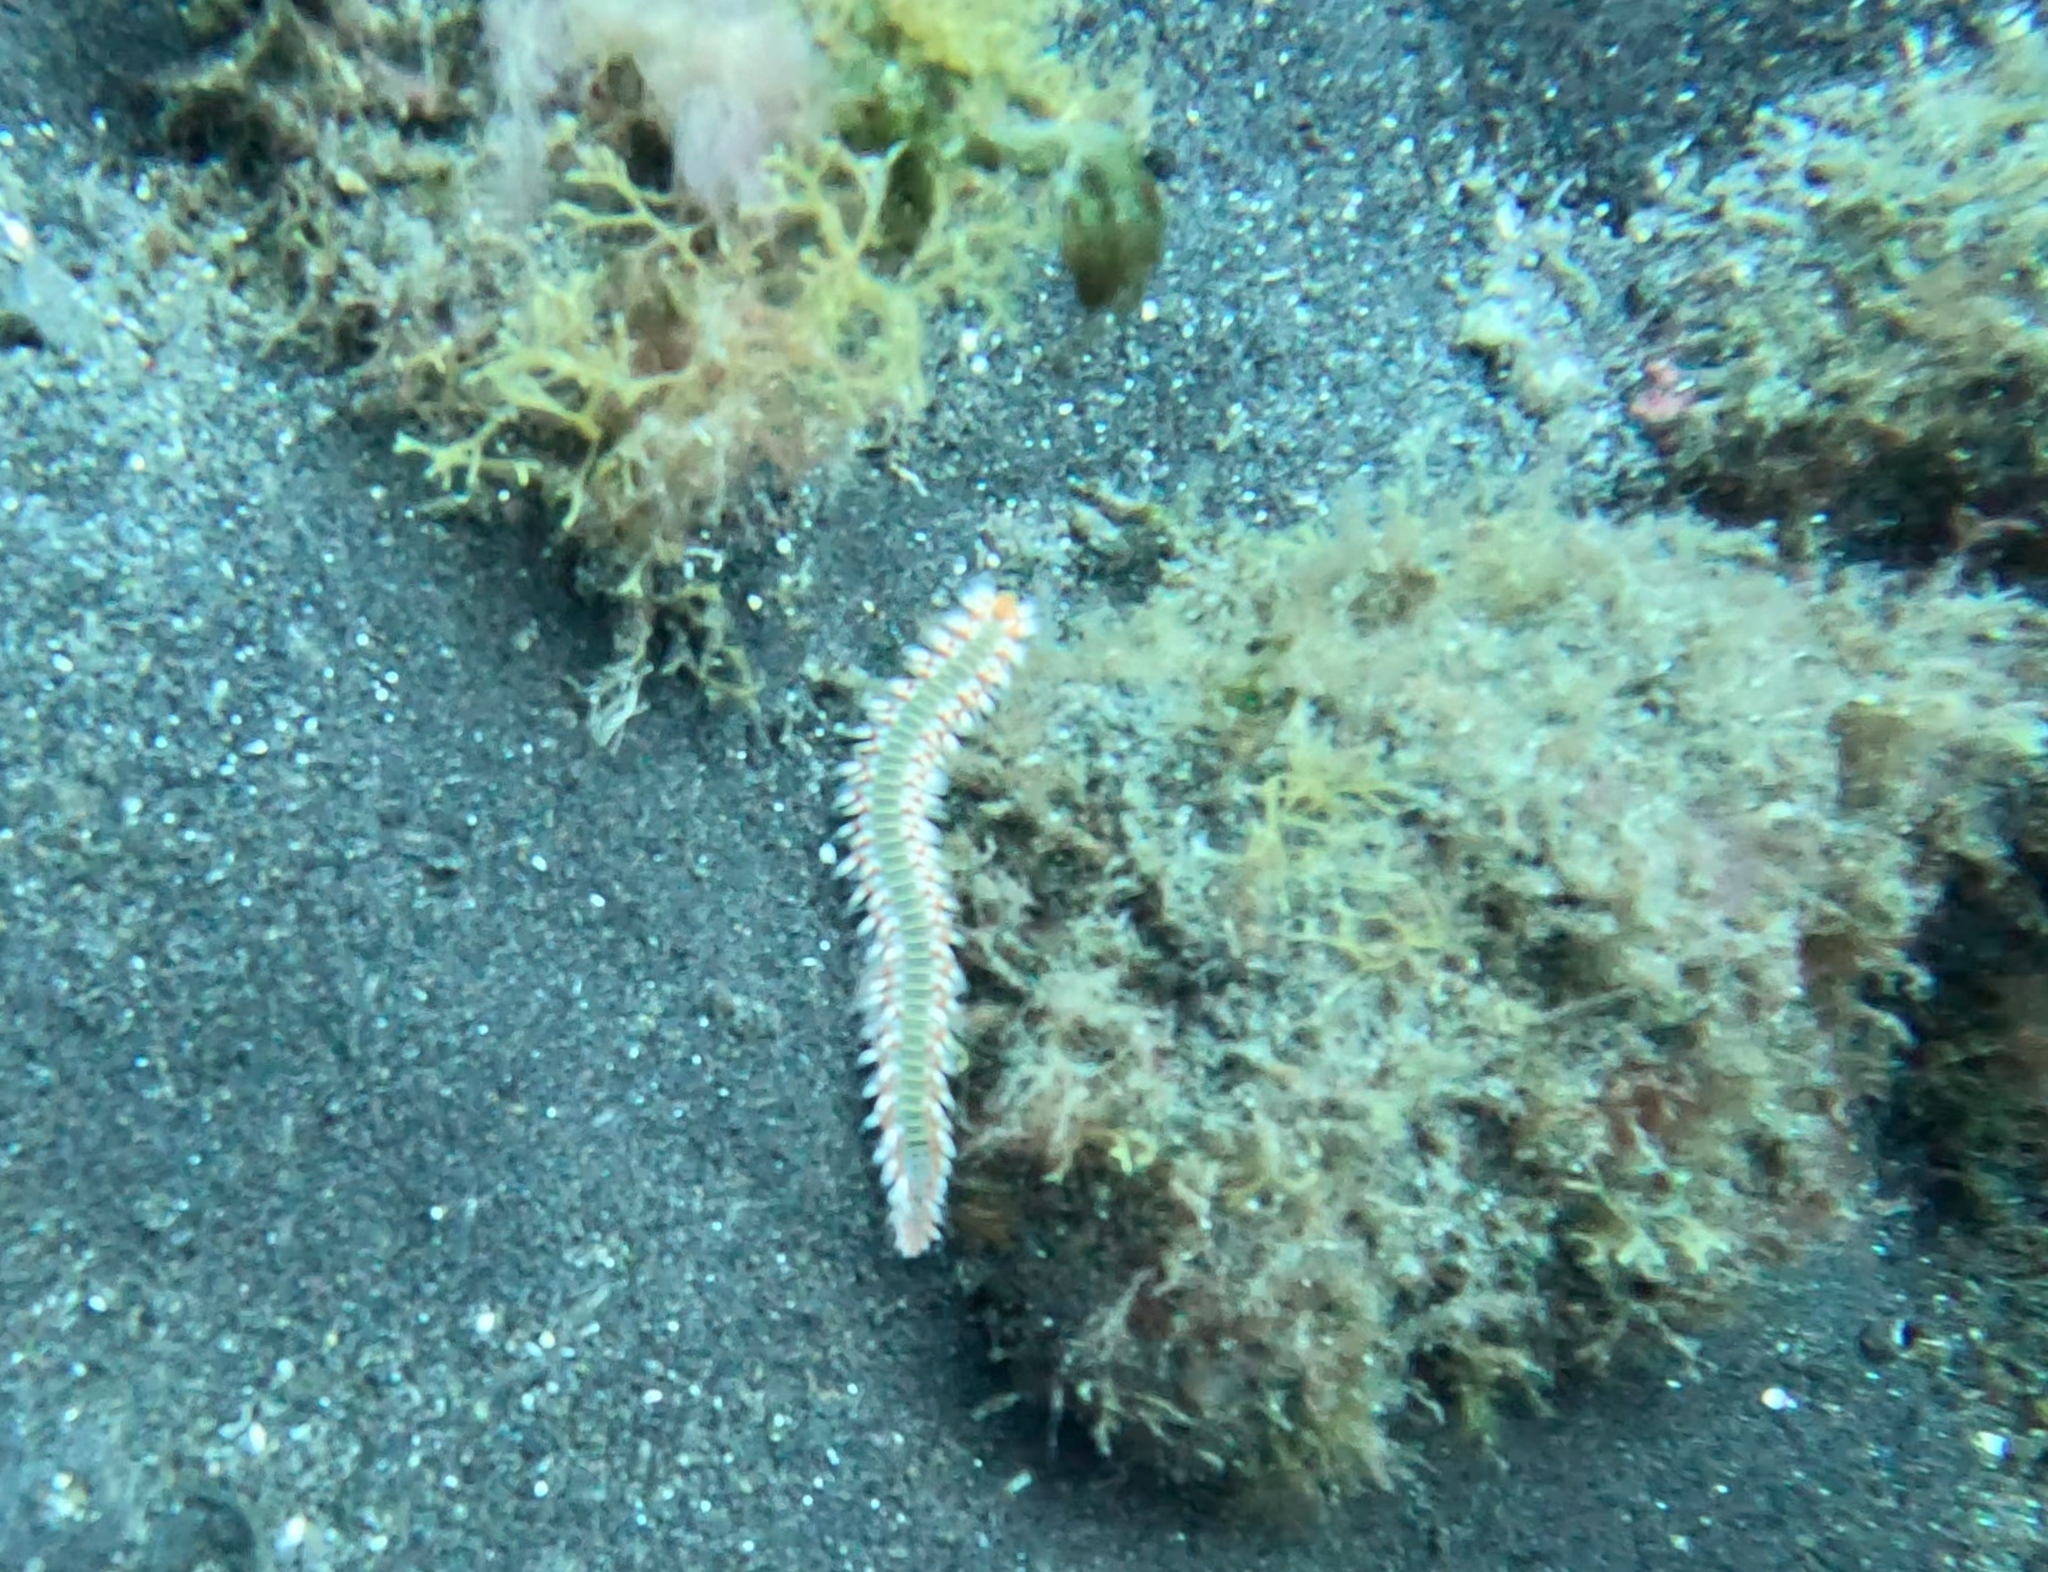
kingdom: Animalia
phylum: Annelida
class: Polychaeta
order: Amphinomida
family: Amphinomidae
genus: Hermodice
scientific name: Hermodice carunculata
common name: Bearded fireworm
